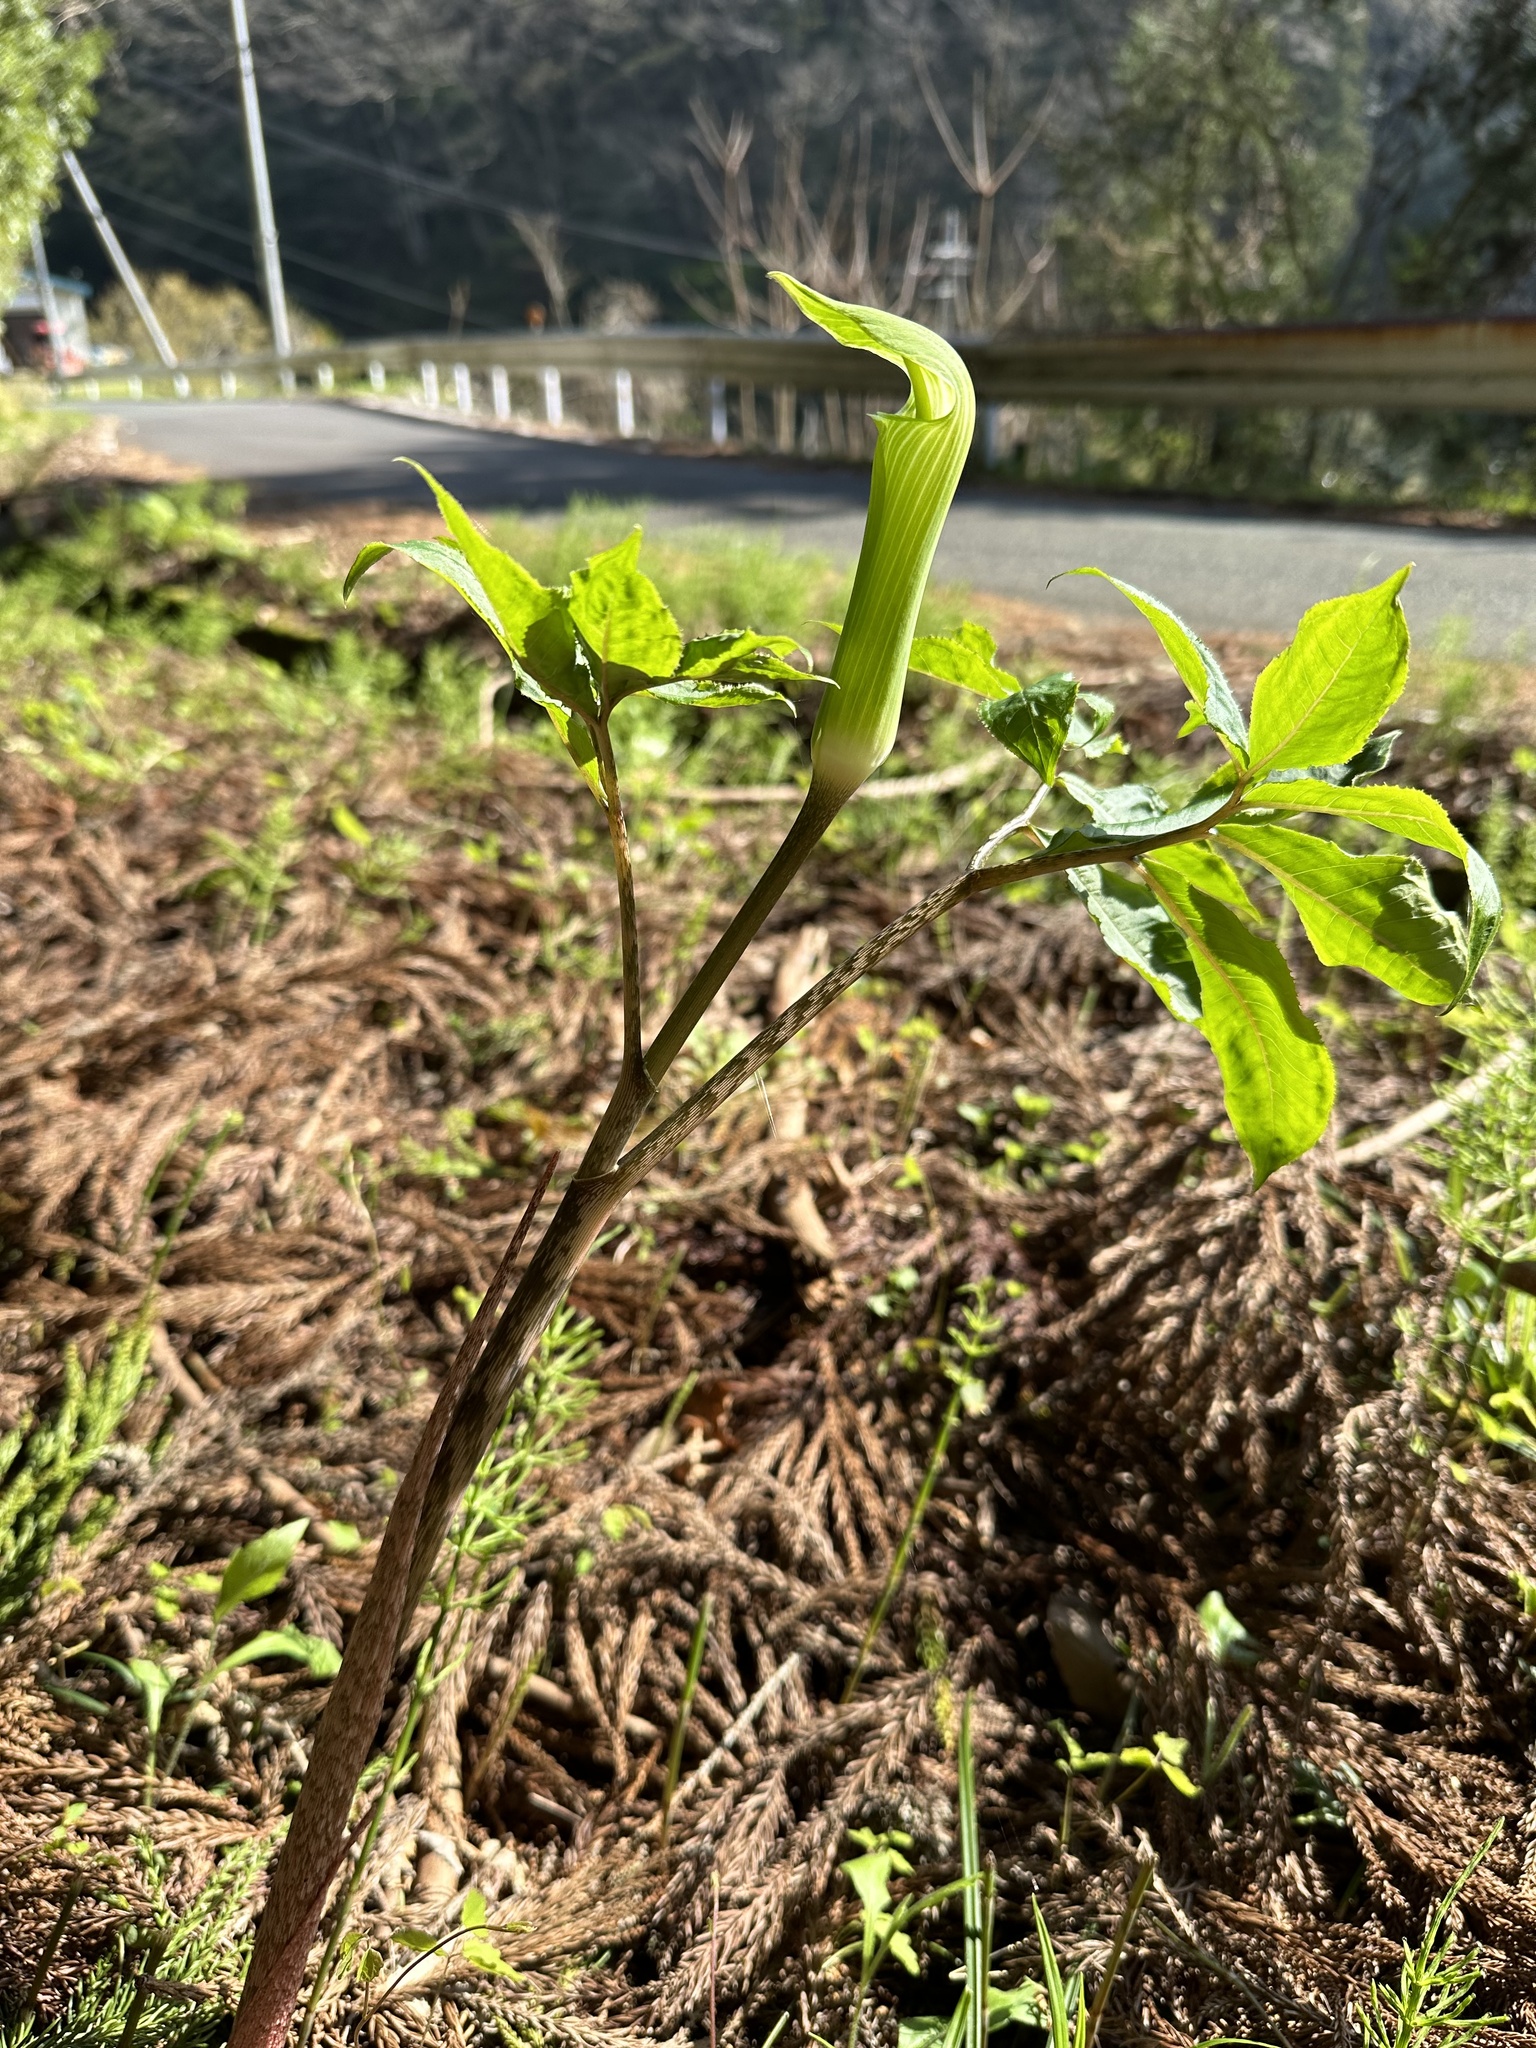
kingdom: Plantae
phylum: Tracheophyta
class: Liliopsida
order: Alismatales
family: Araceae
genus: Arisaema
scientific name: Arisaema yamatense
